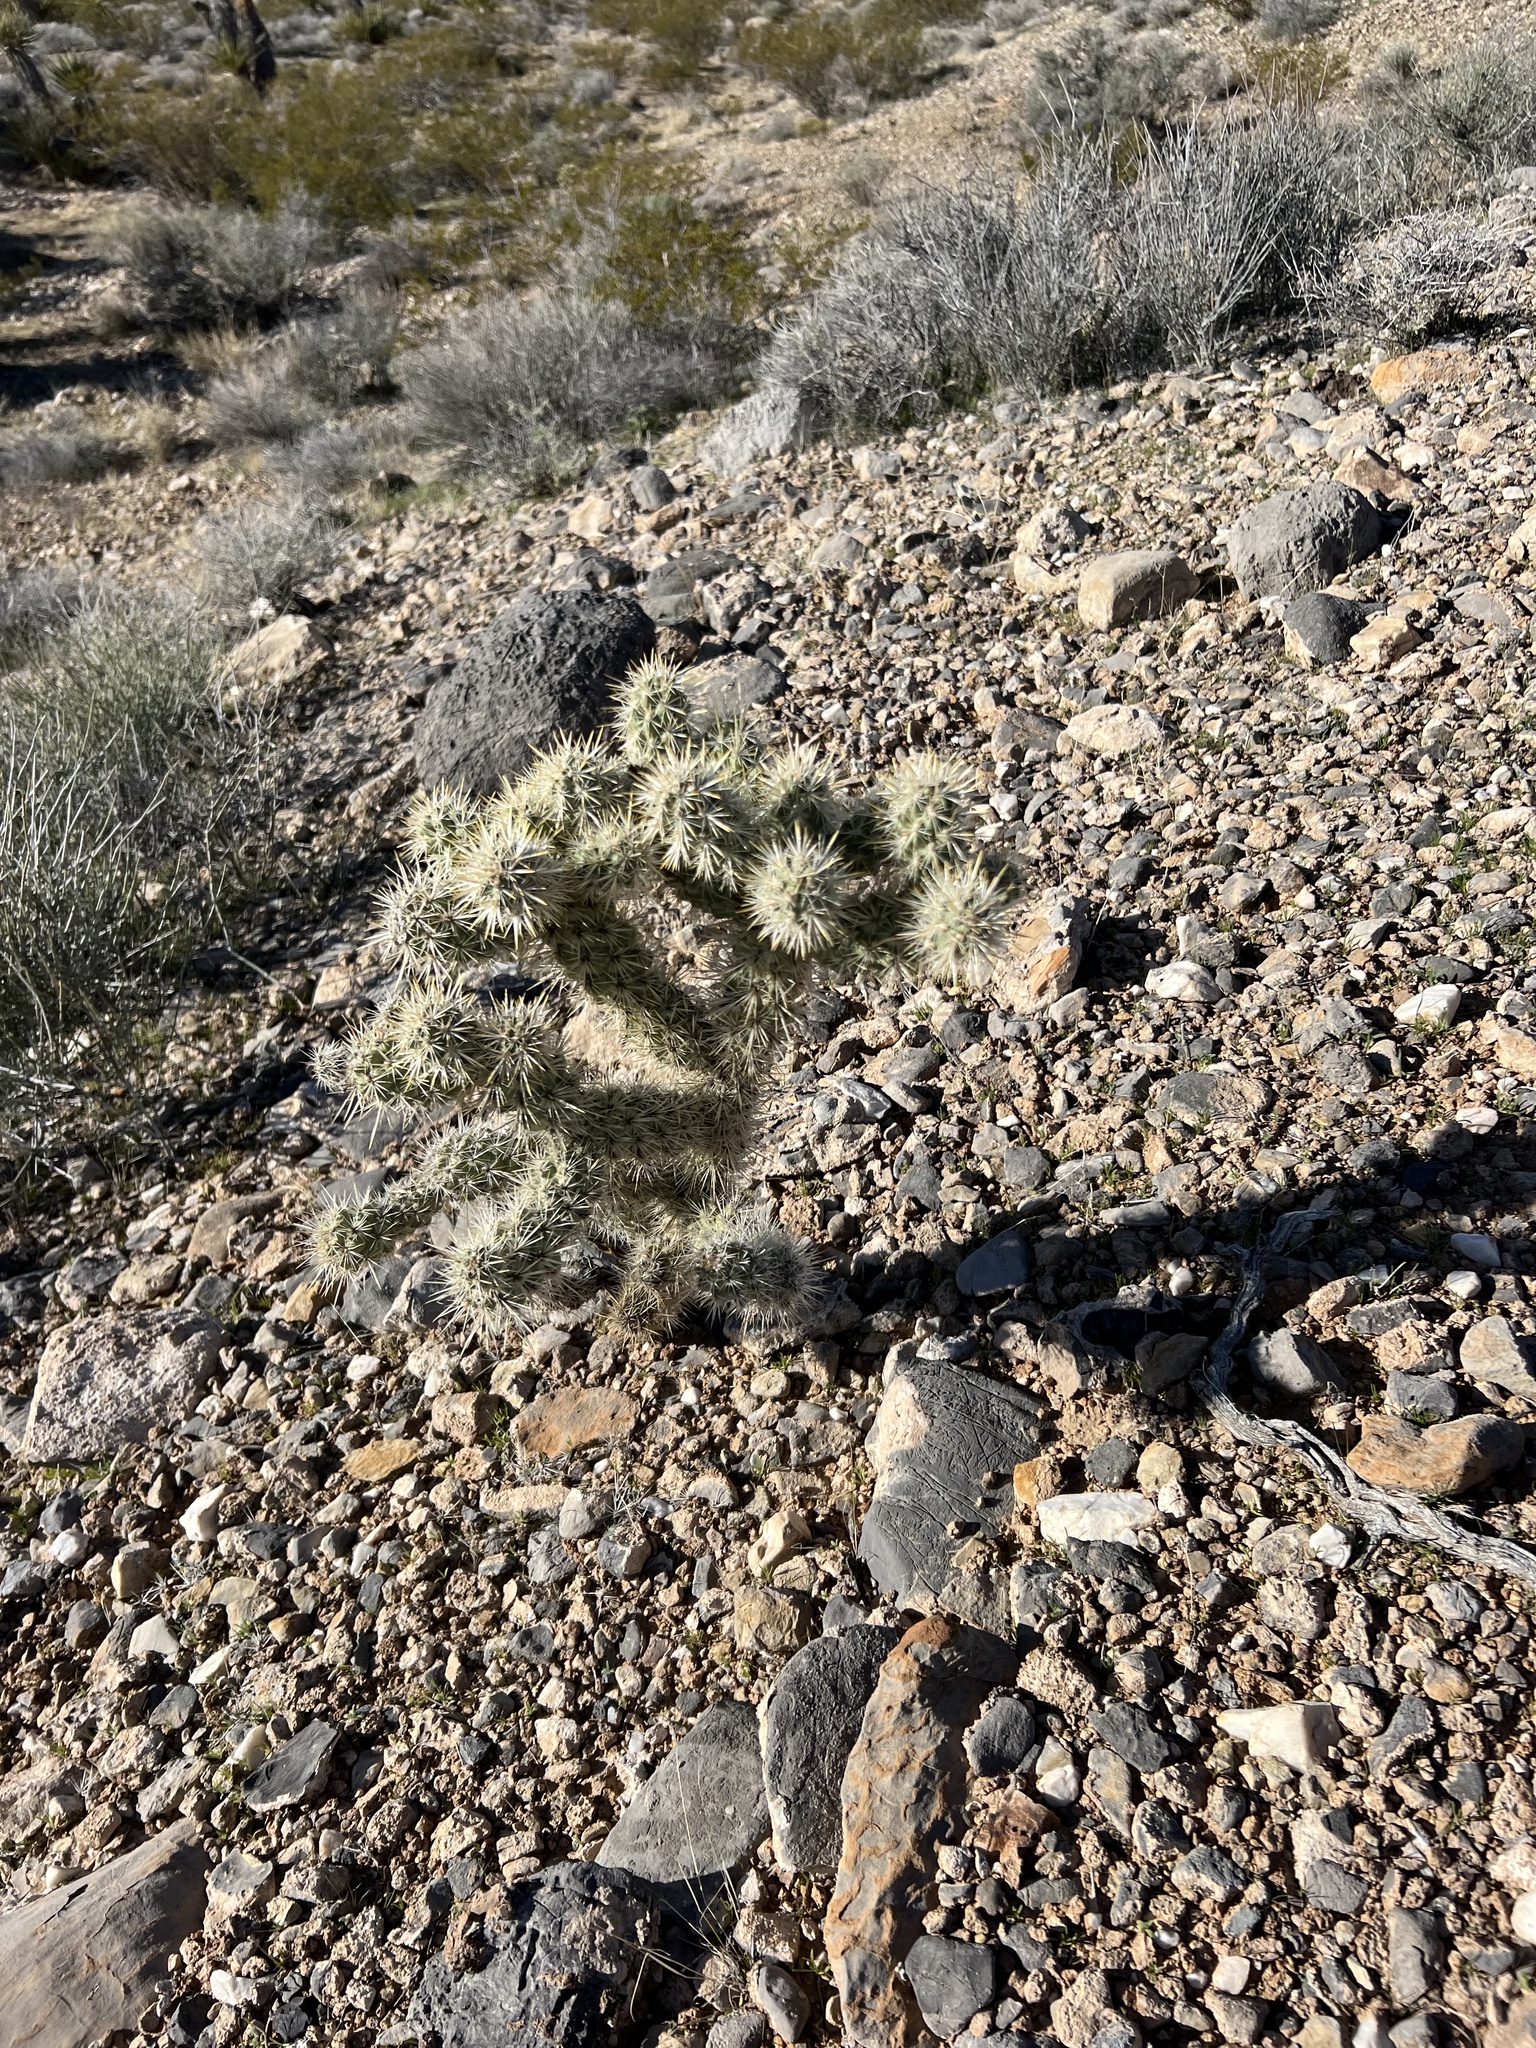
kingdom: Plantae
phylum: Tracheophyta
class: Magnoliopsida
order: Caryophyllales
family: Cactaceae
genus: Cylindropuntia
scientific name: Cylindropuntia echinocarpa
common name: Ground cholla
